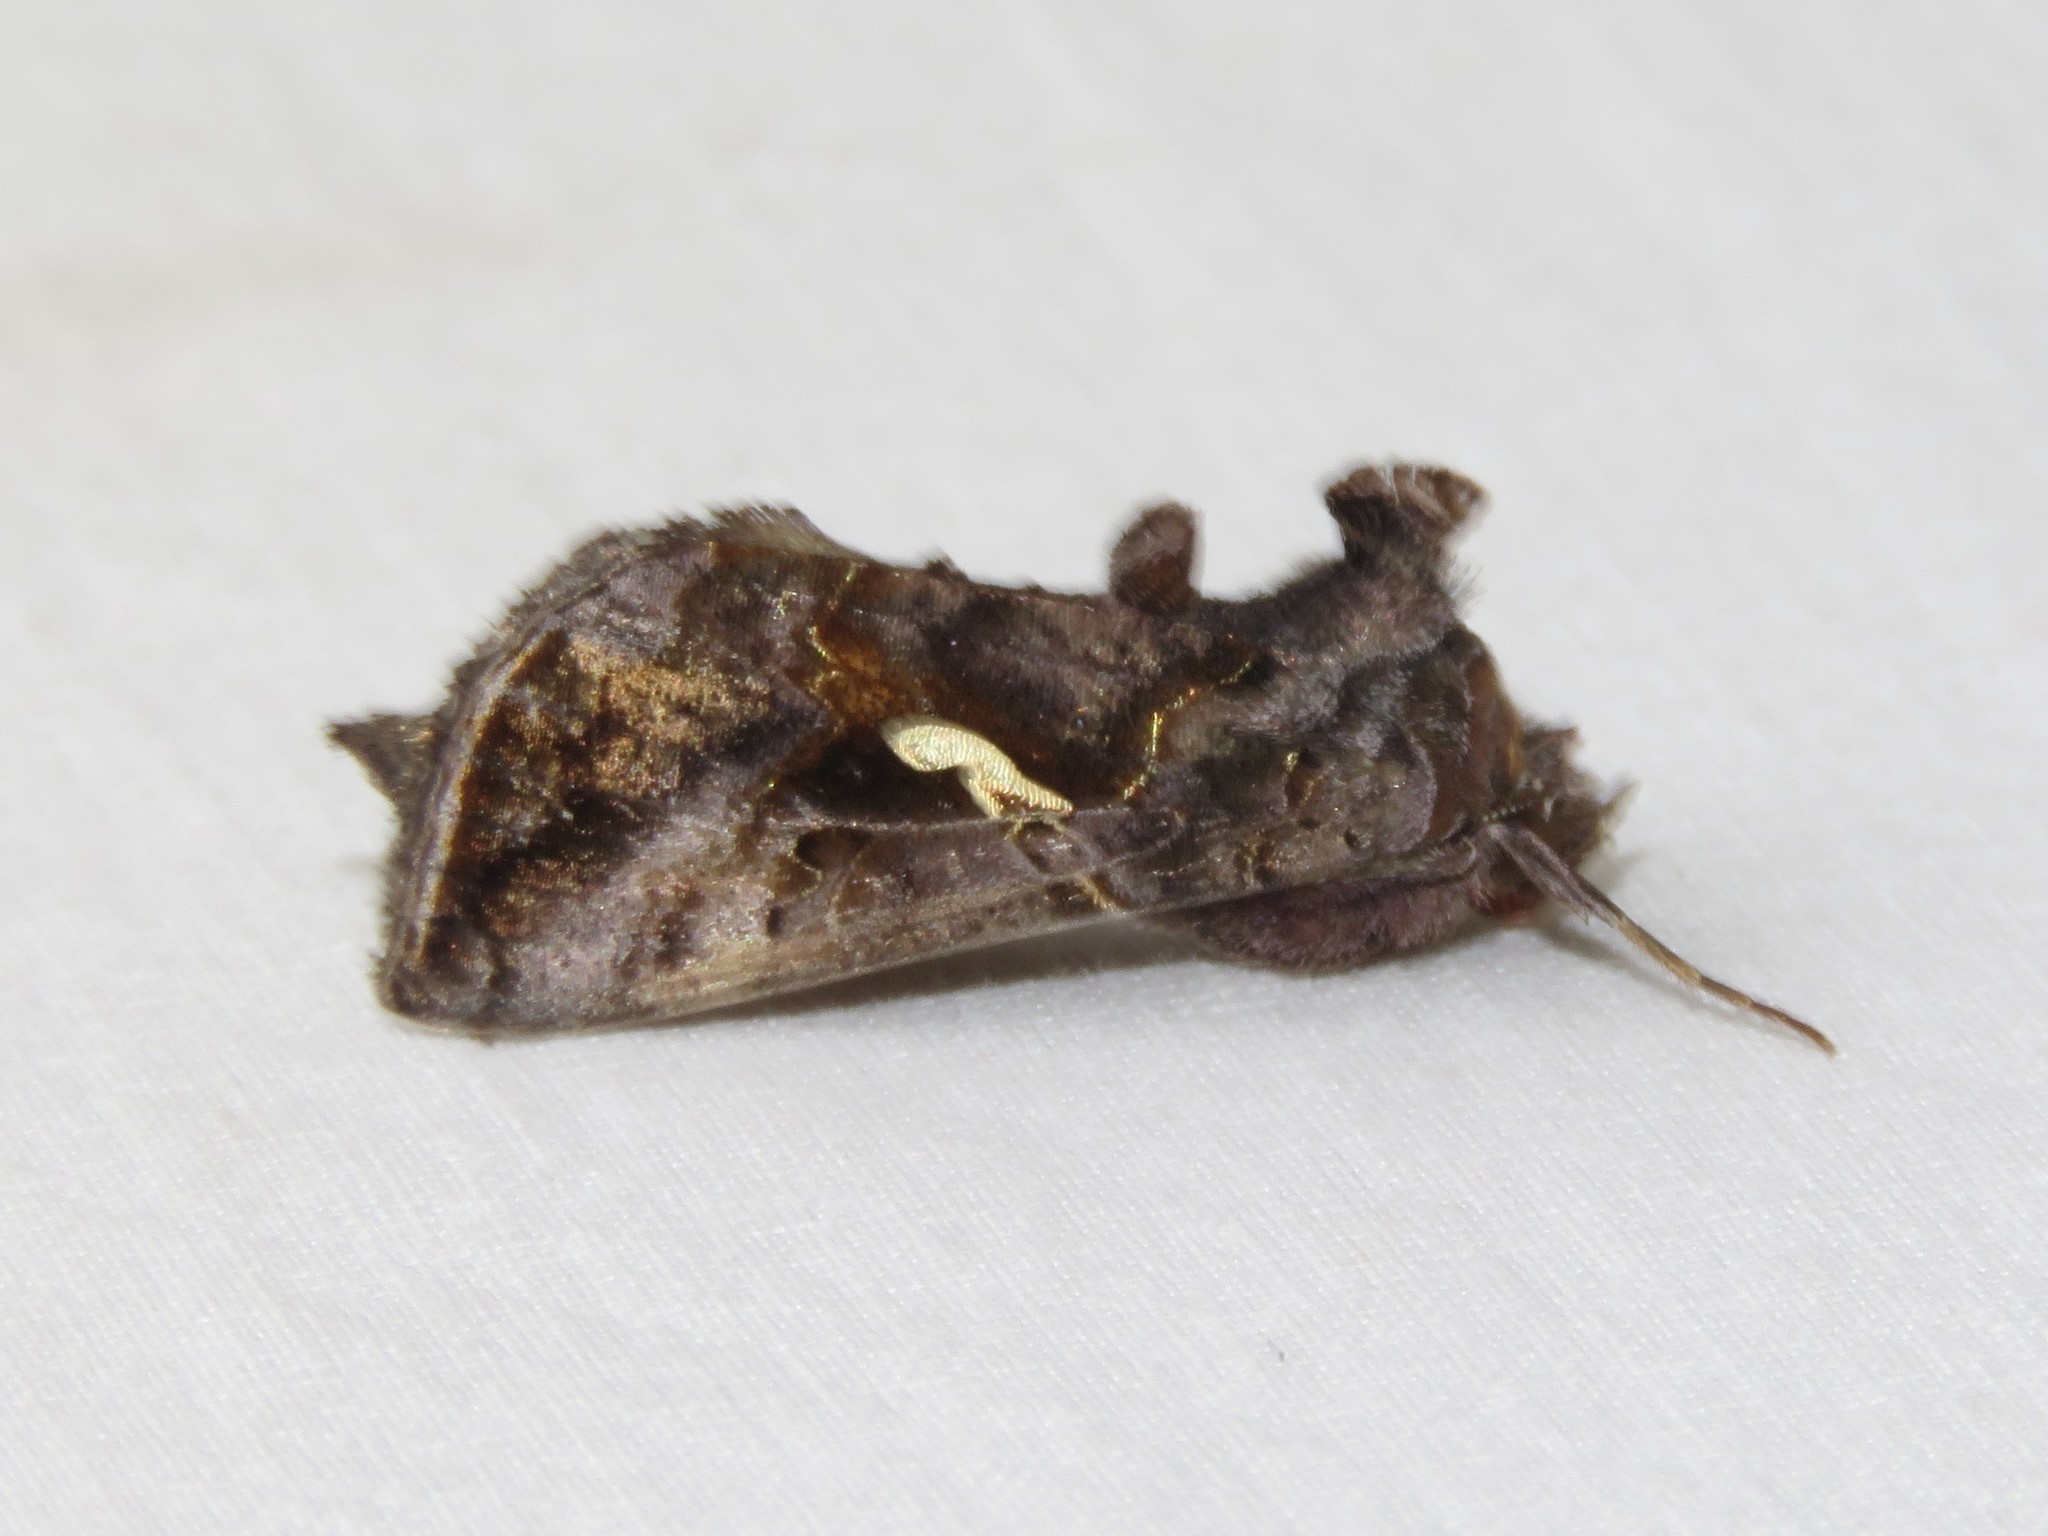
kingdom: Animalia
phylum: Arthropoda
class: Insecta
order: Lepidoptera
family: Noctuidae
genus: Autographa
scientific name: Autographa precationis
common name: Common looper moth
